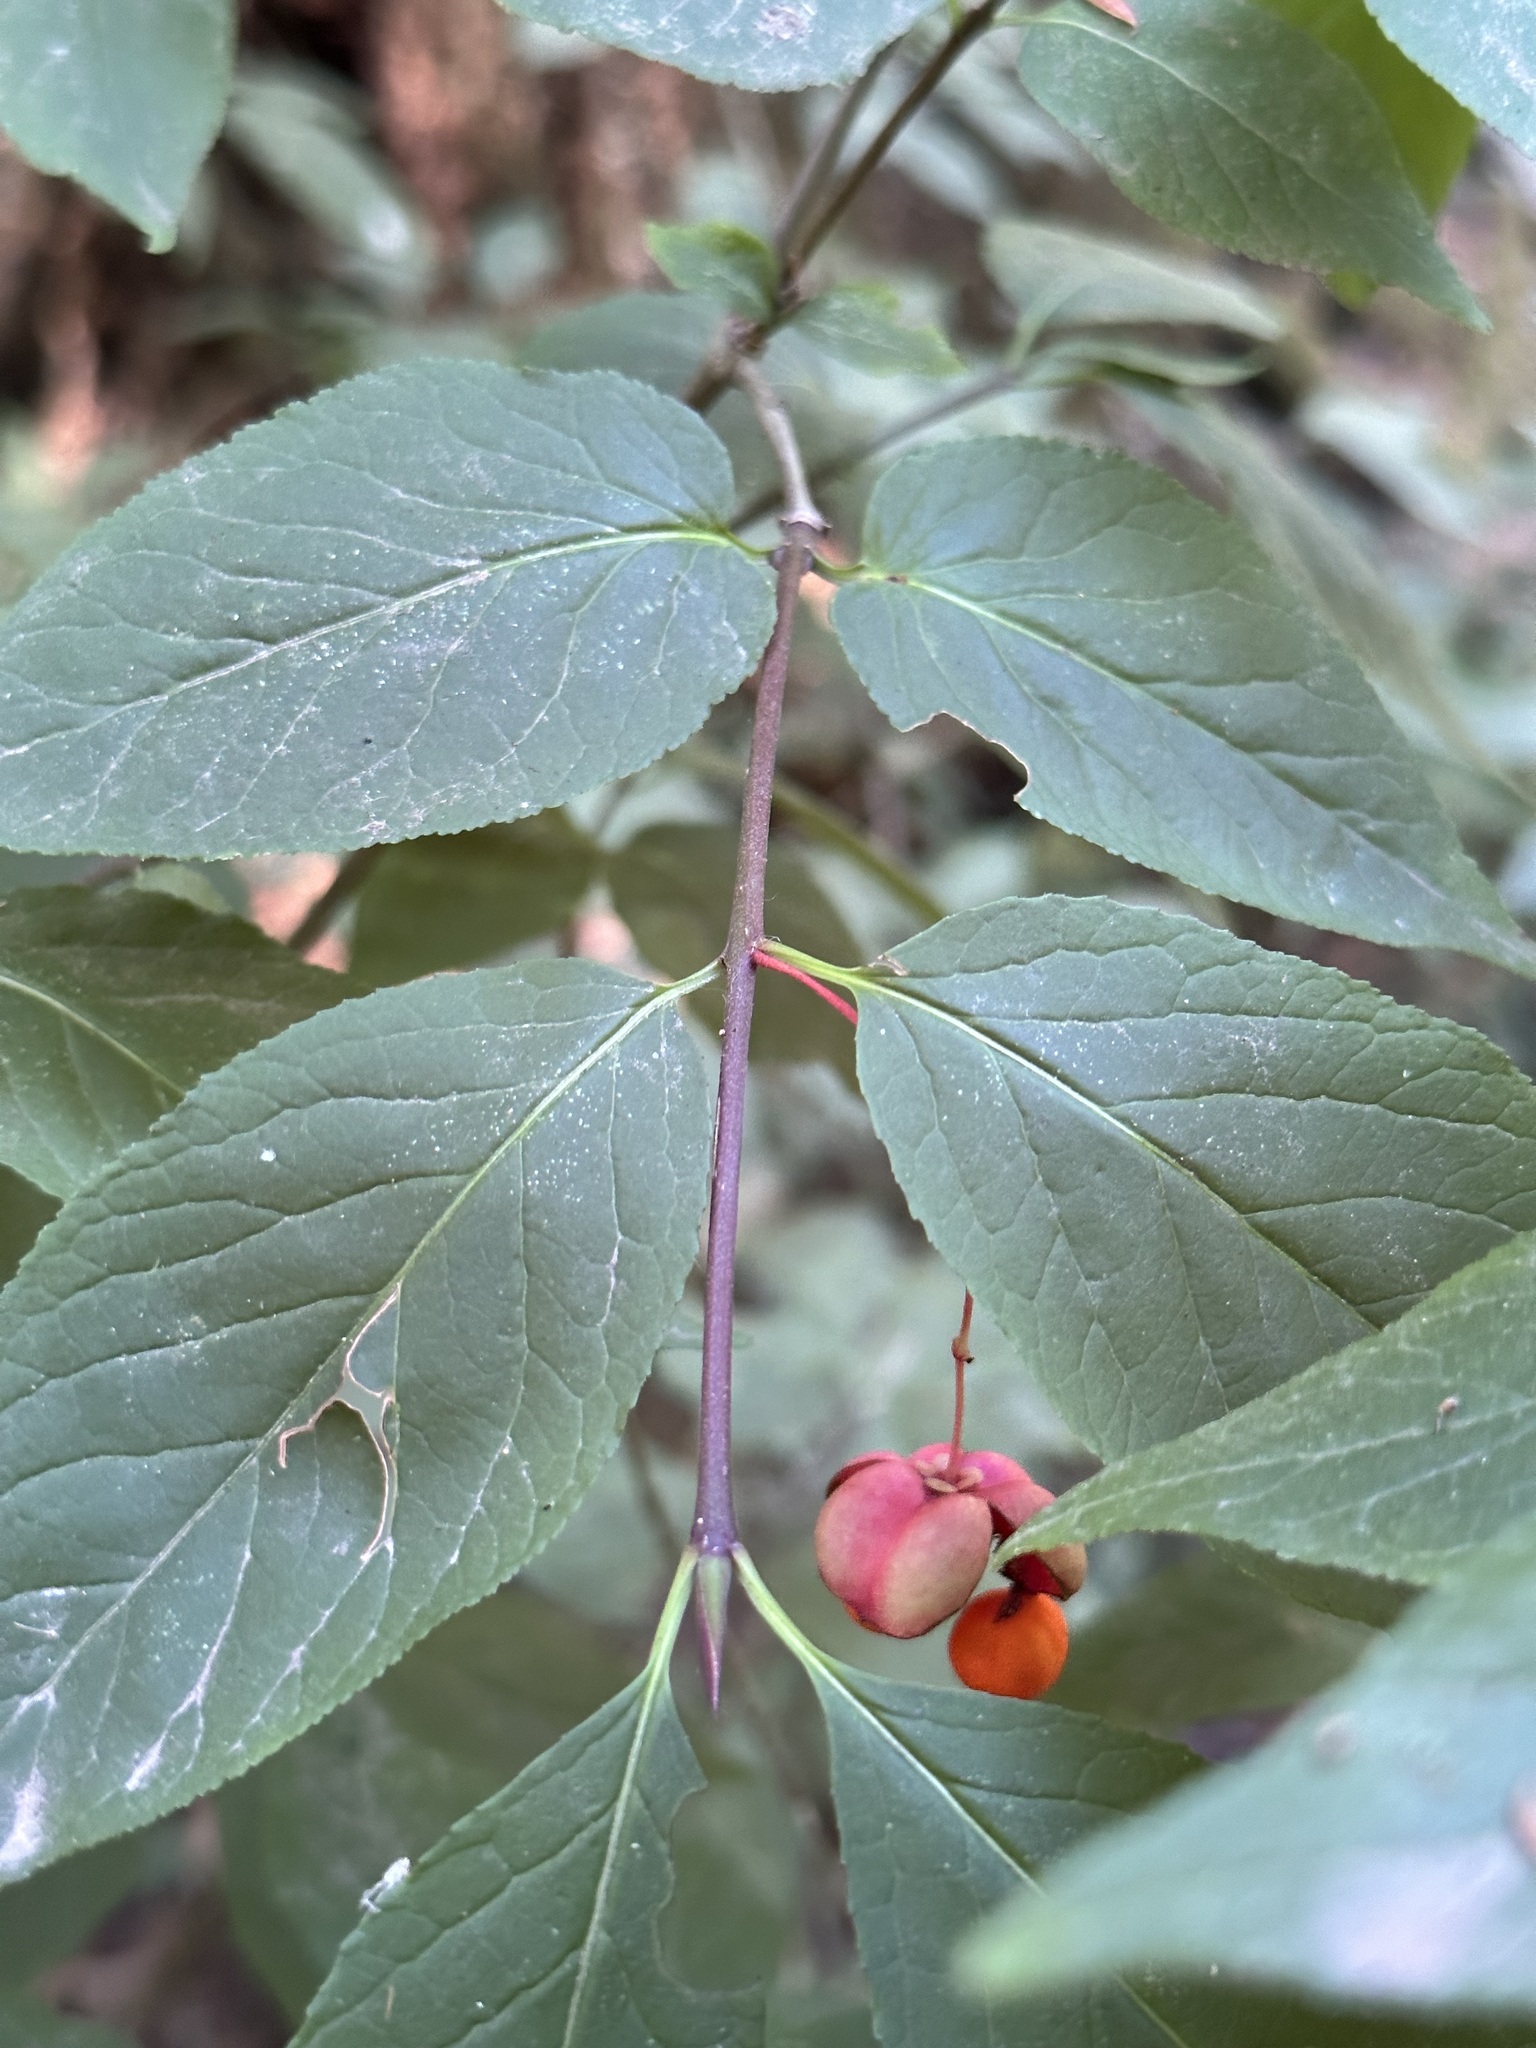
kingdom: Plantae
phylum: Tracheophyta
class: Magnoliopsida
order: Celastrales
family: Celastraceae
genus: Euonymus
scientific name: Euonymus occidentalis
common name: Western burningbush
